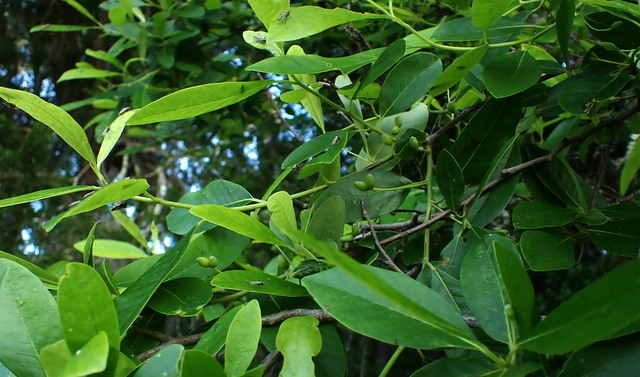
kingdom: Plantae
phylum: Tracheophyta
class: Magnoliopsida
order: Cornales
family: Nyssaceae
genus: Nyssa
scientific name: Nyssa biflora
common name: Swamp blackgum
